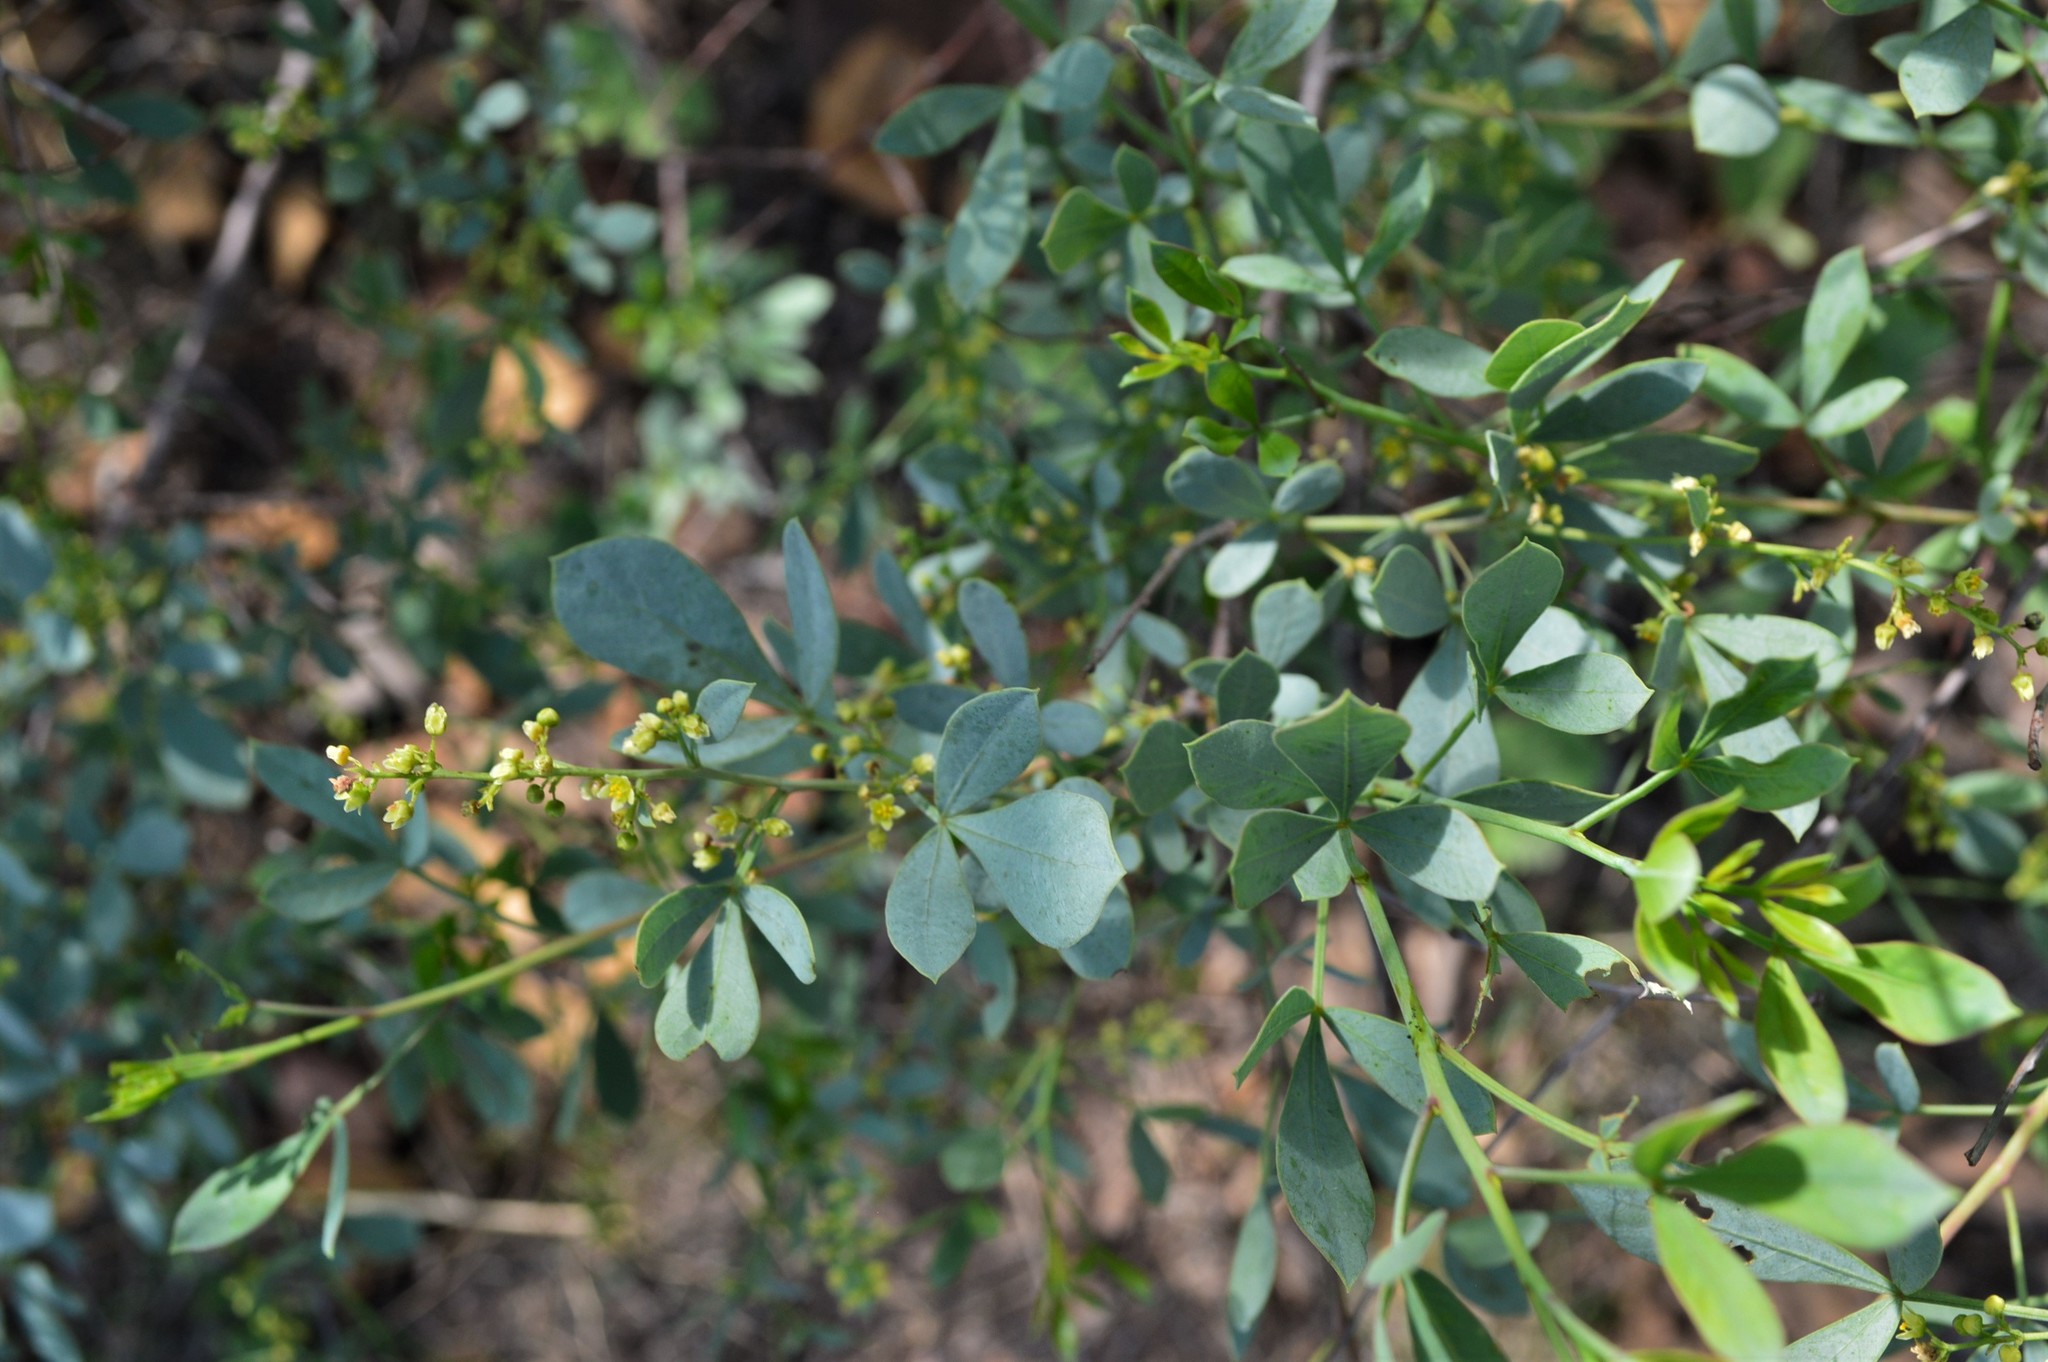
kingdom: Plantae
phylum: Tracheophyta
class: Magnoliopsida
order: Sapindales
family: Anacardiaceae
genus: Searsia
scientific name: Searsia zeyheri
